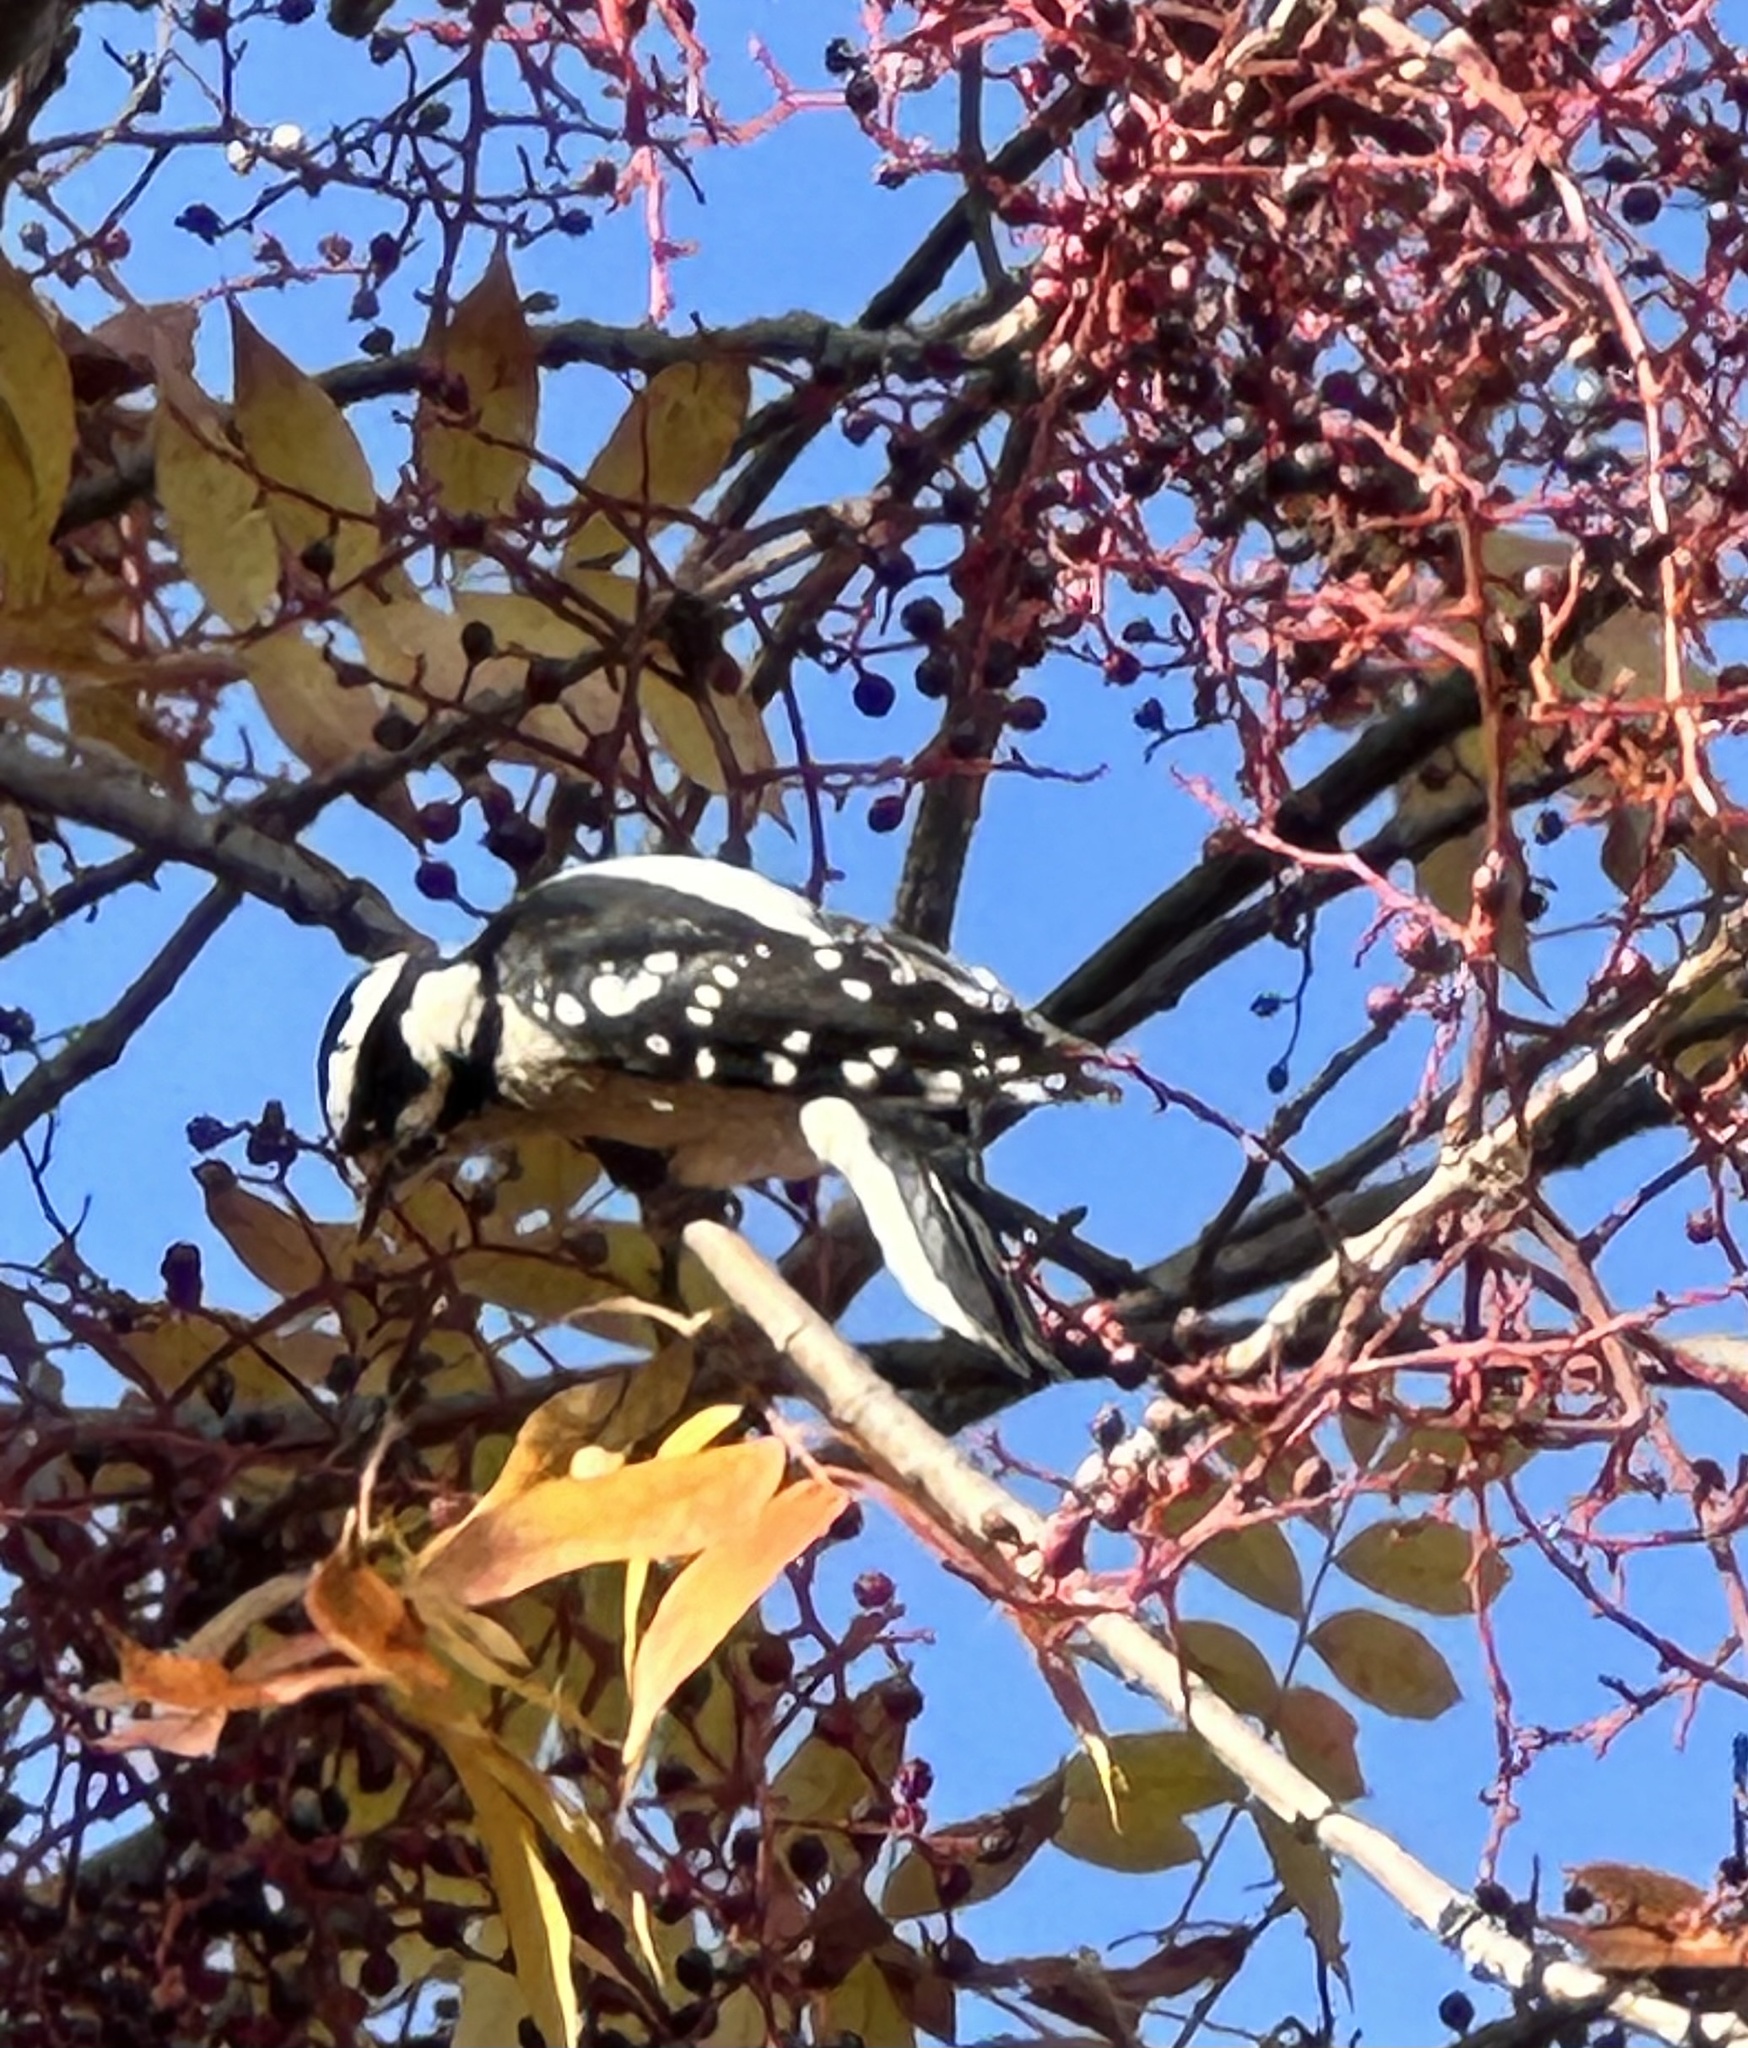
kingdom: Animalia
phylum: Chordata
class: Aves
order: Piciformes
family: Picidae
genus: Dryobates
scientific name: Dryobates pubescens
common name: Downy woodpecker
